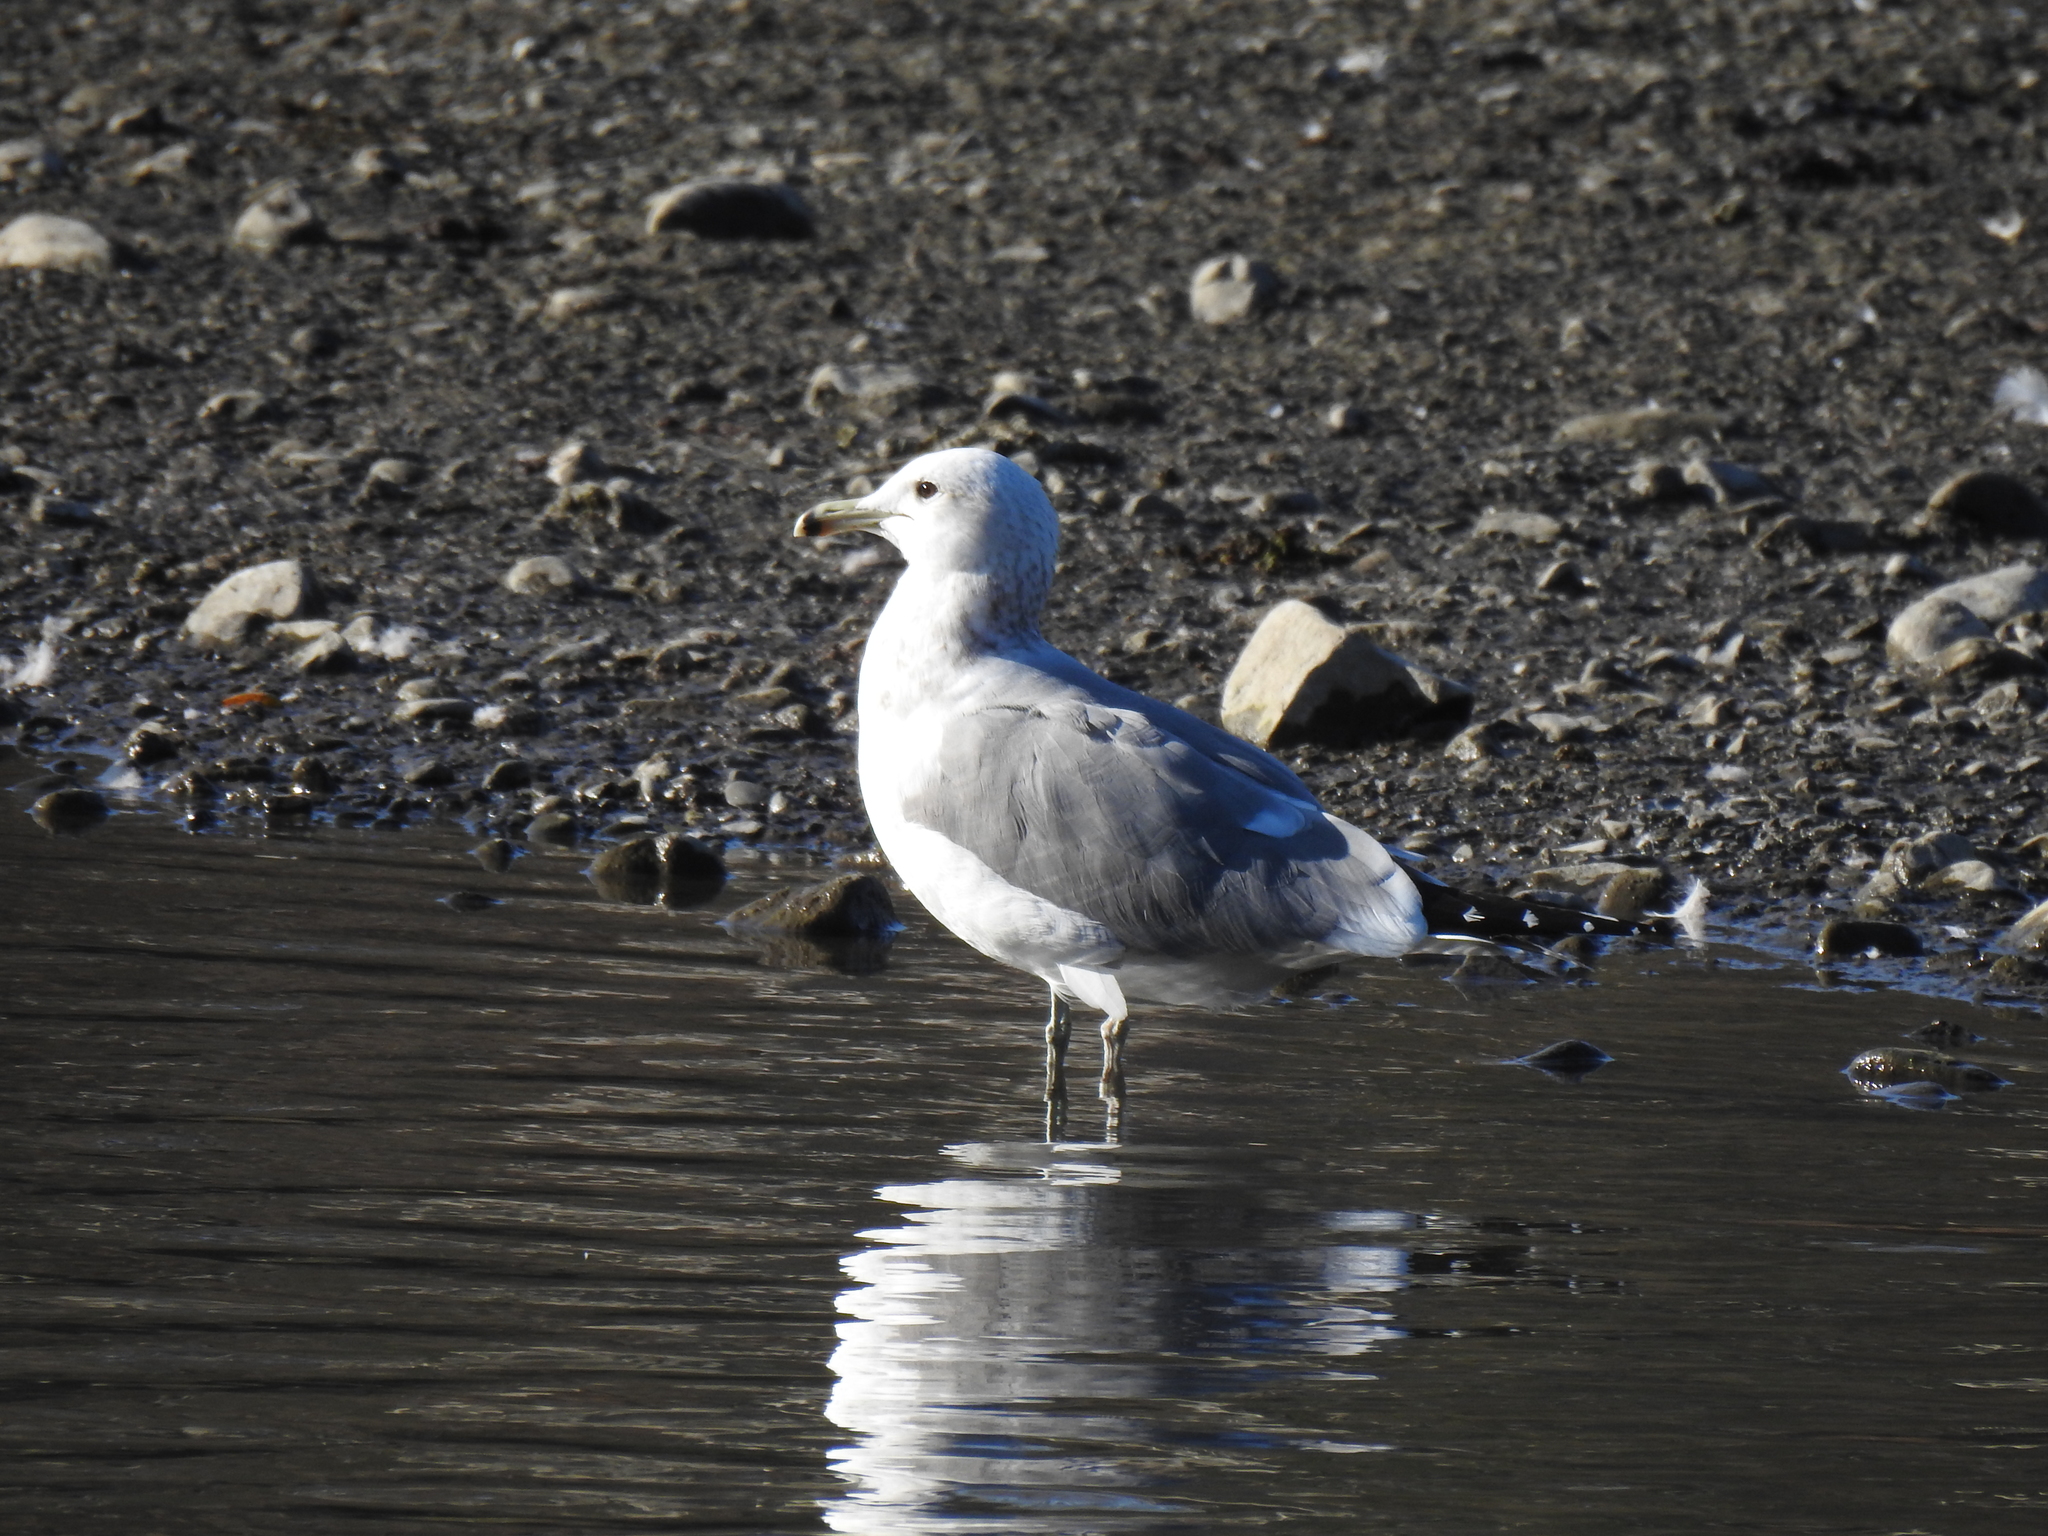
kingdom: Animalia
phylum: Chordata
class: Aves
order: Charadriiformes
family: Laridae
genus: Larus
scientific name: Larus californicus
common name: California gull
